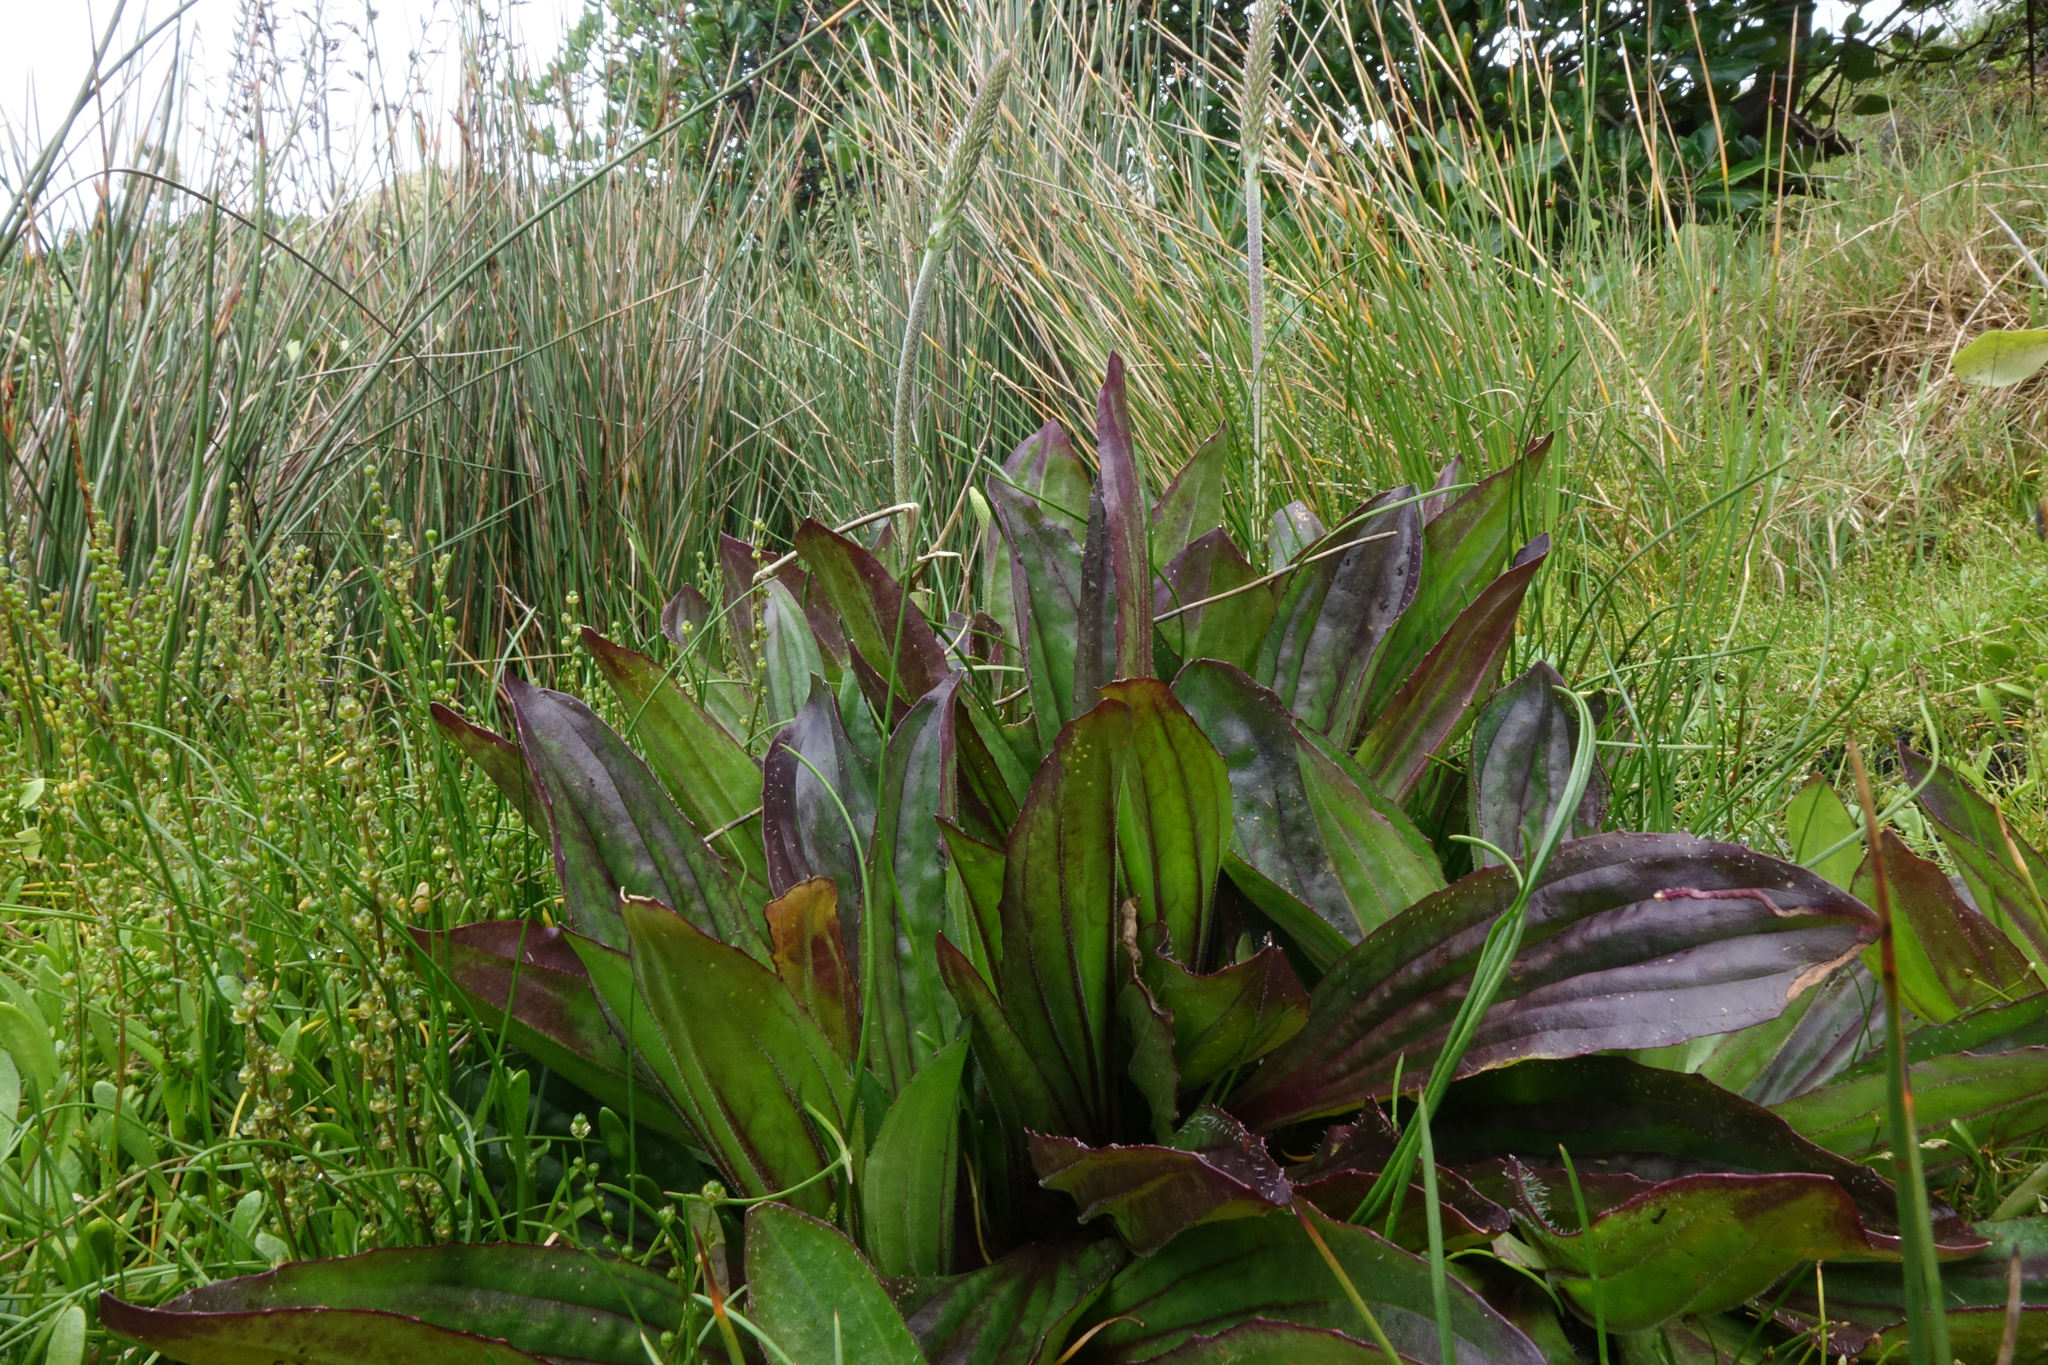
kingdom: Plantae
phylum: Tracheophyta
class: Magnoliopsida
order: Lamiales
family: Plantaginaceae
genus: Plantago
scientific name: Plantago australis
